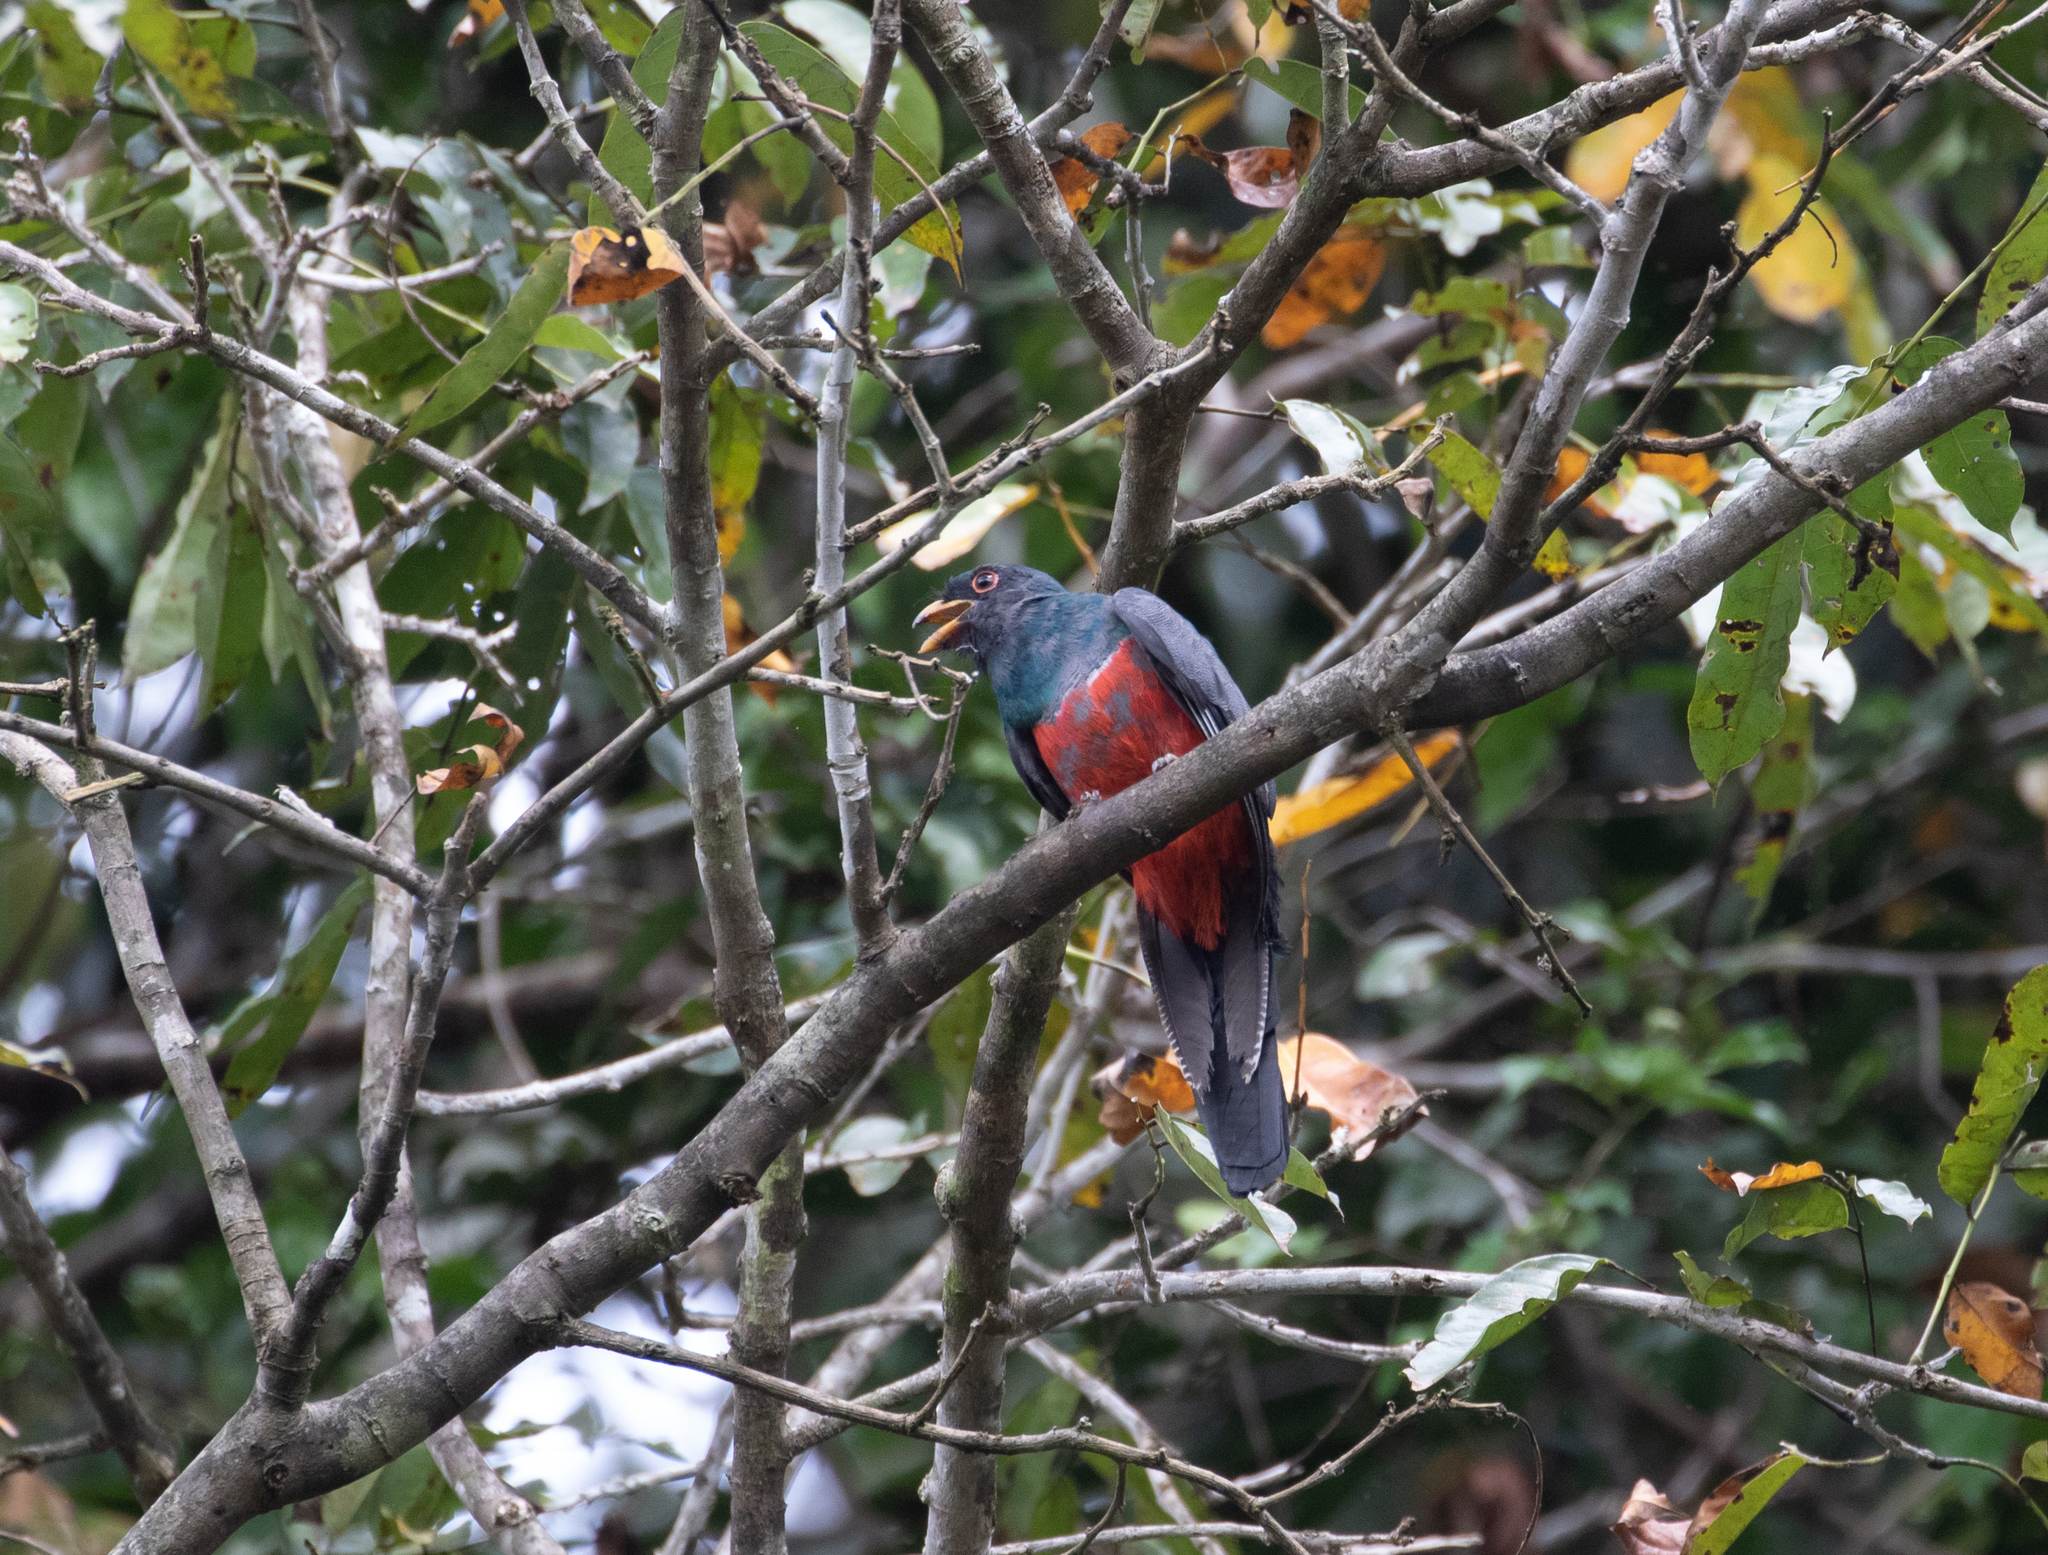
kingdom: Animalia
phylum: Chordata
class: Aves
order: Trogoniformes
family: Trogonidae
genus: Trogon
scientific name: Trogon melanurus
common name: Black-tailed trogon
